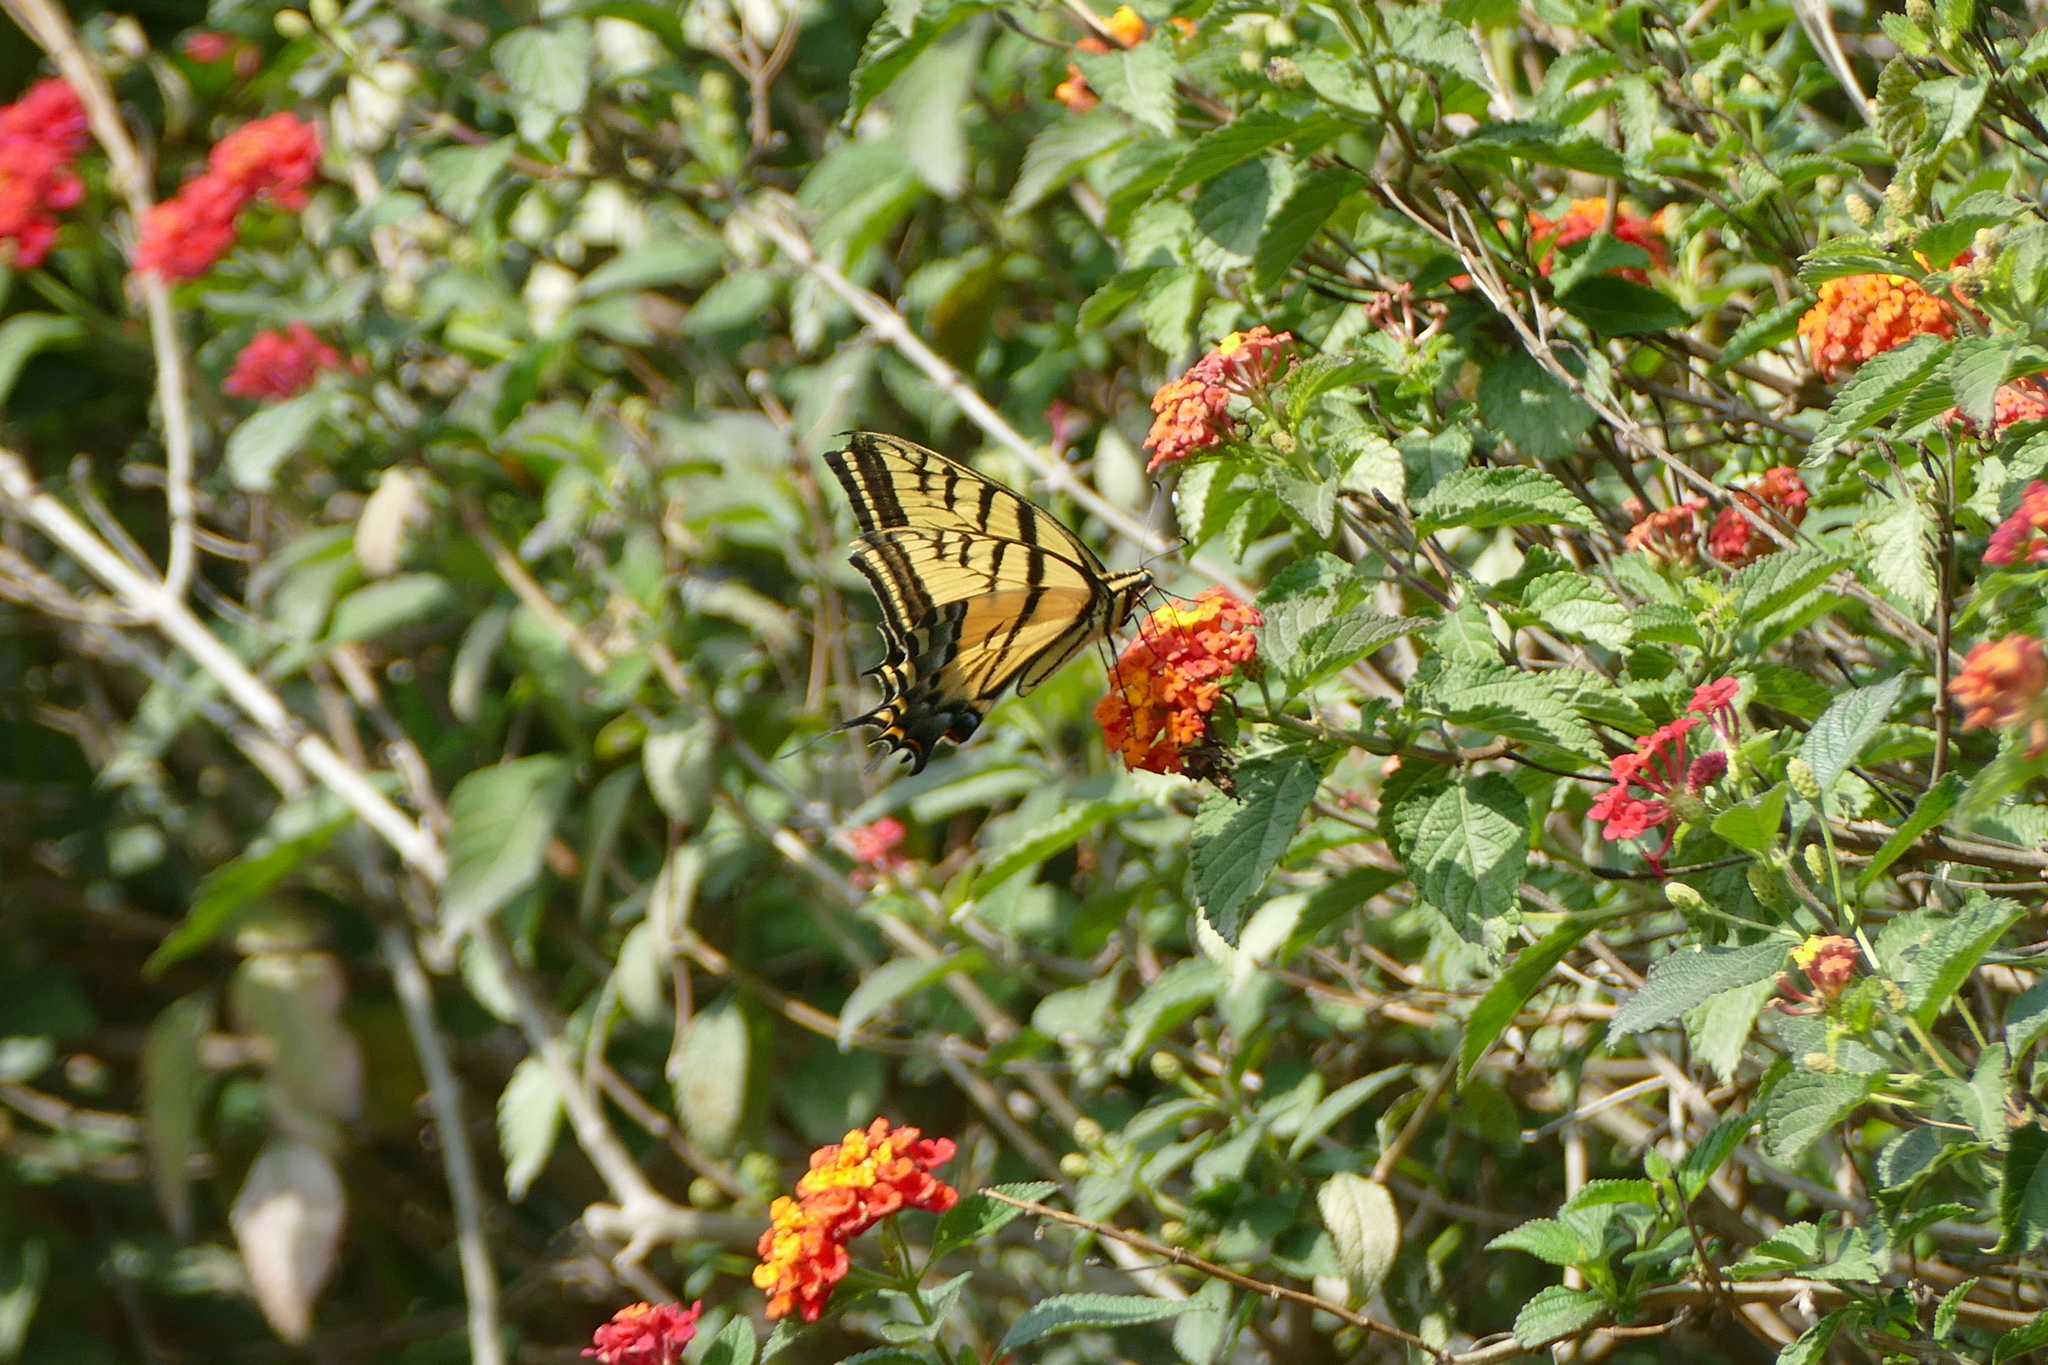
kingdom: Animalia
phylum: Arthropoda
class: Insecta
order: Lepidoptera
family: Papilionidae
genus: Papilio
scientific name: Papilio multicaudata
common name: Two-tailed tiger swallowtail
